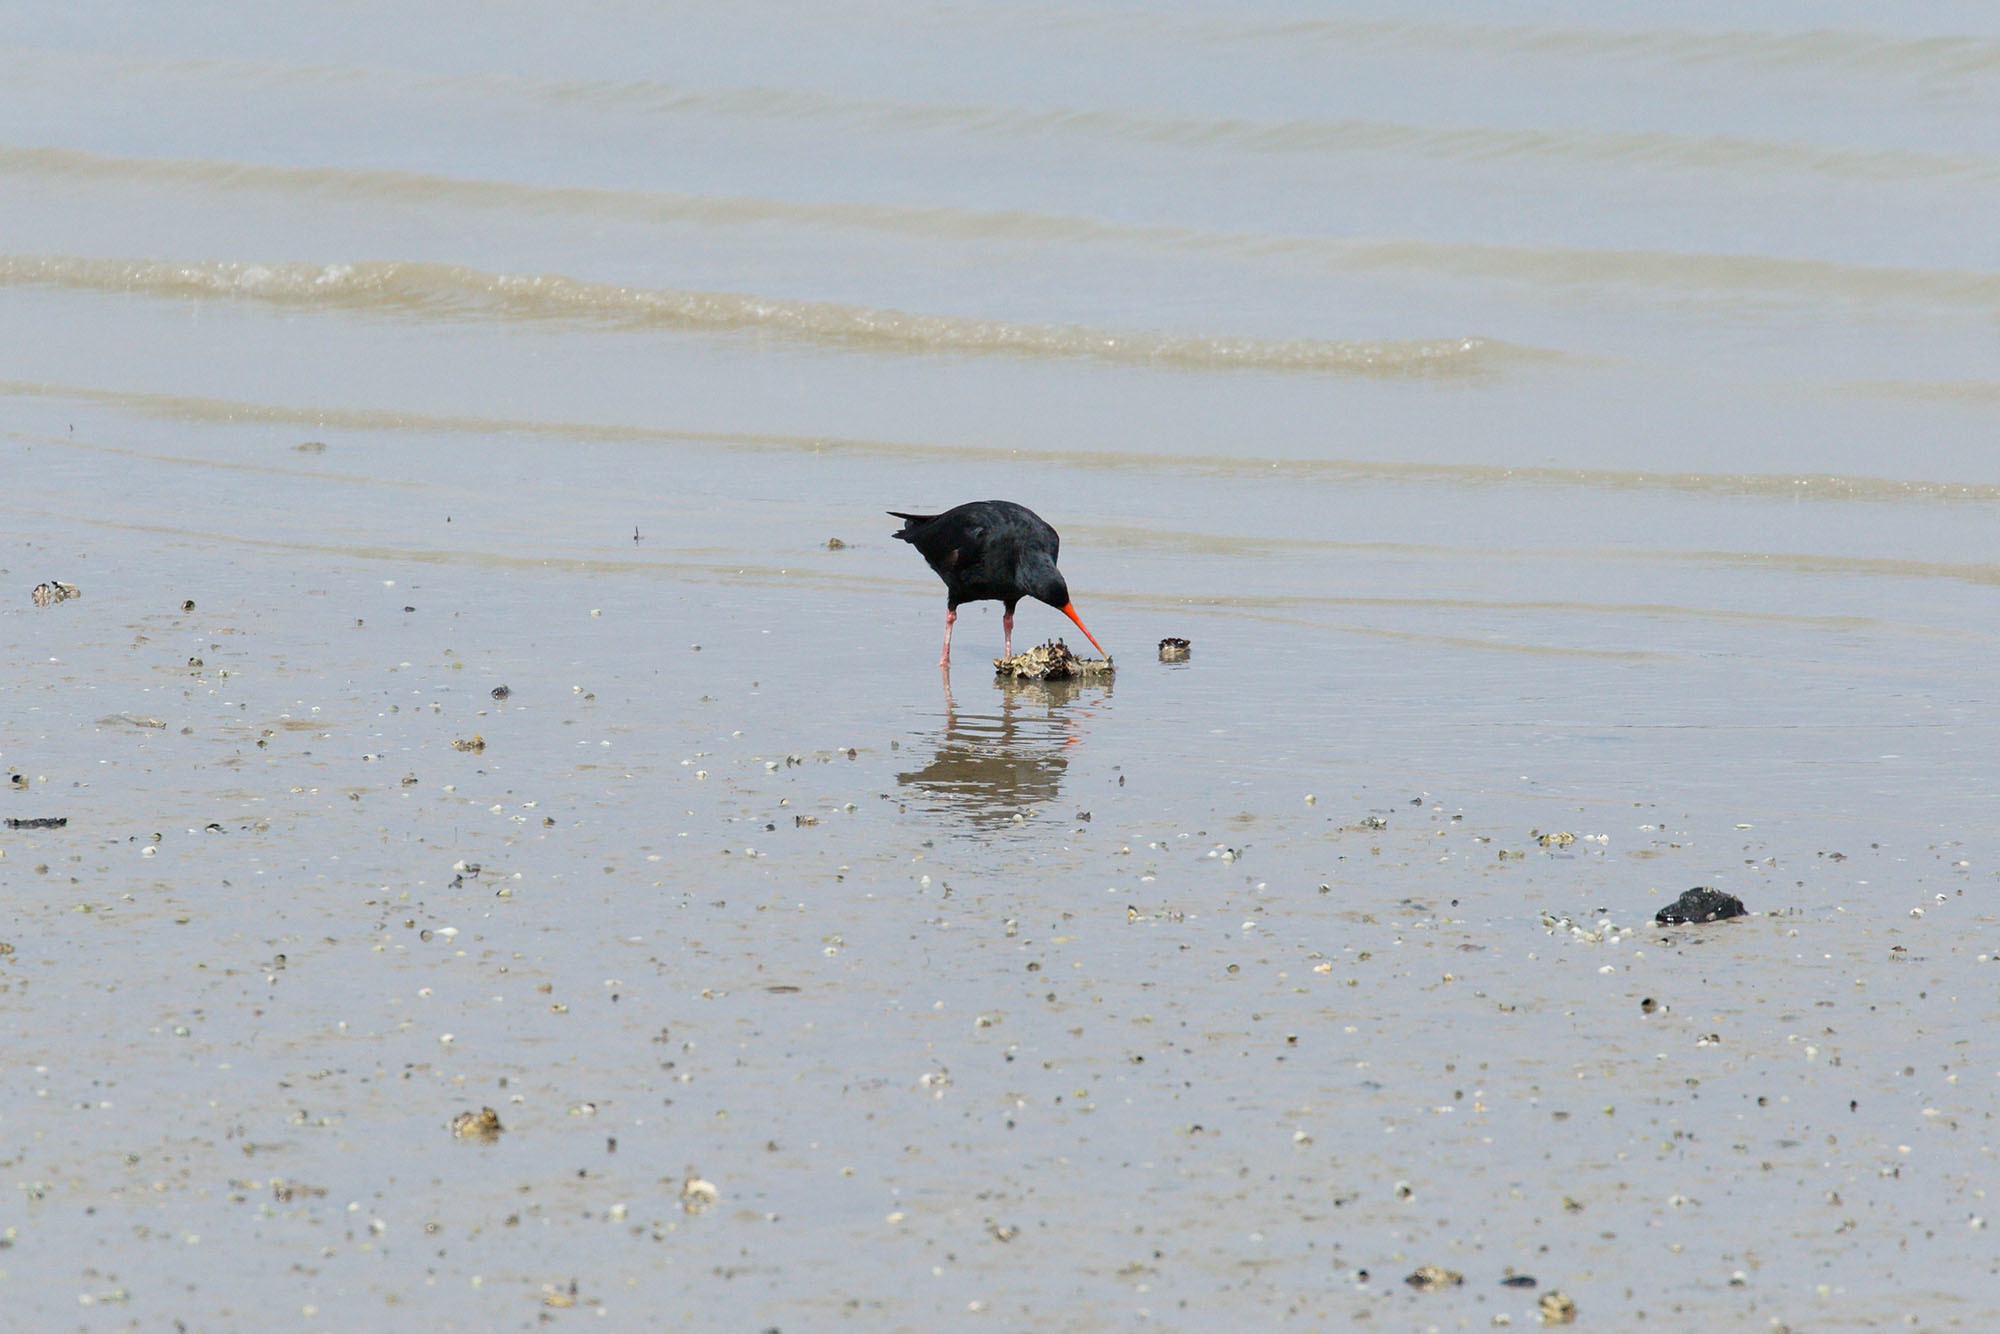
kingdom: Animalia
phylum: Chordata
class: Aves
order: Charadriiformes
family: Haematopodidae
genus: Haematopus
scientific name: Haematopus unicolor
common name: Variable oystercatcher
